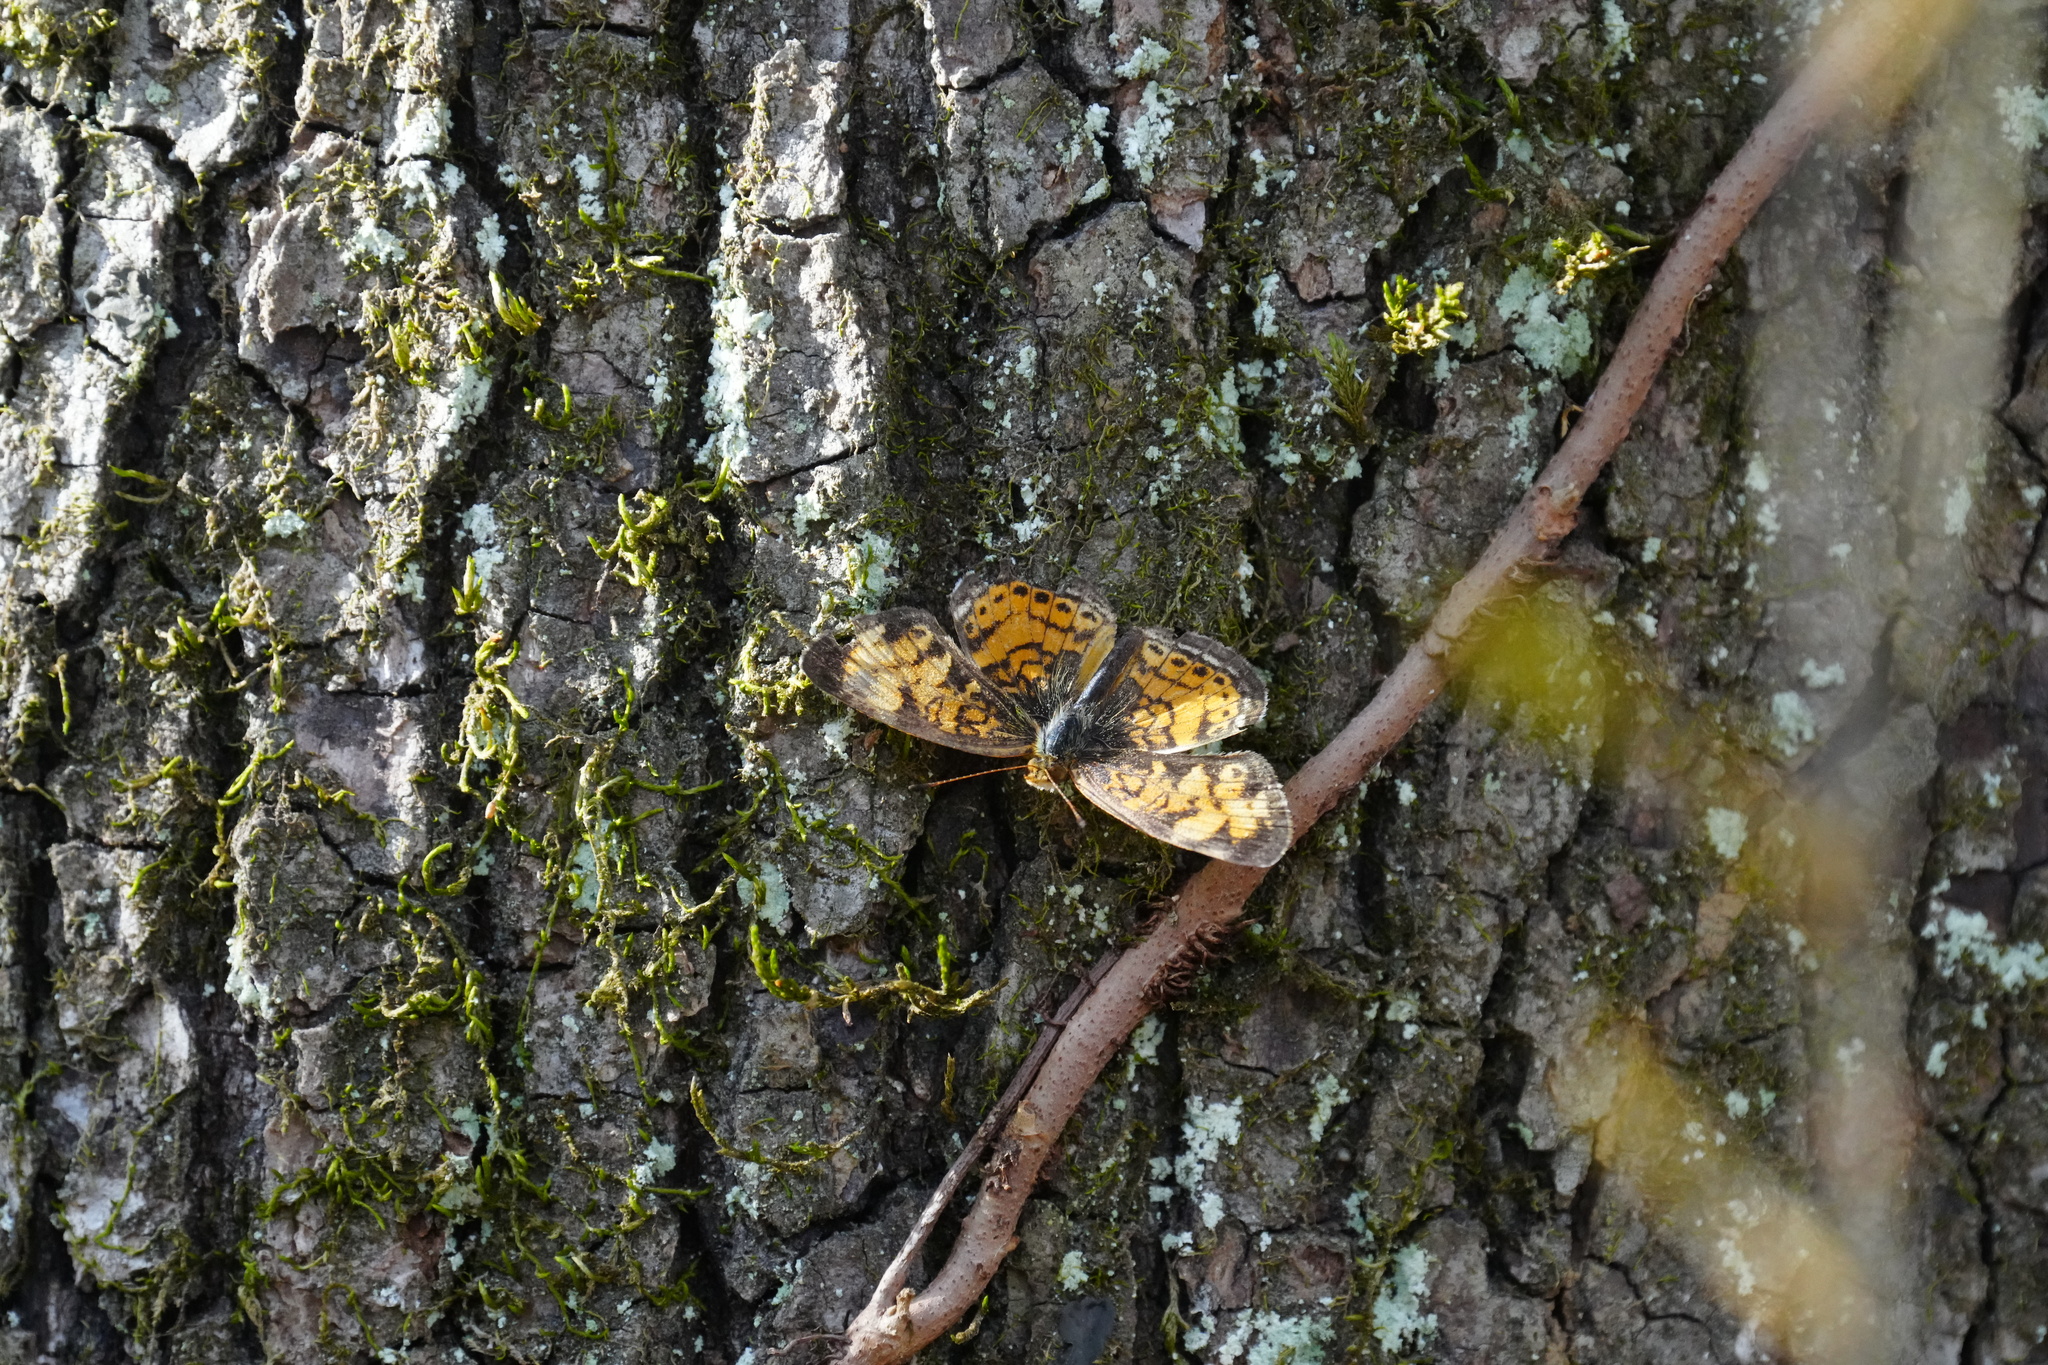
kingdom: Animalia
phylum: Arthropoda
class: Insecta
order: Lepidoptera
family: Nymphalidae
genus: Phyciodes
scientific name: Phyciodes tharos
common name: Pearl crescent
